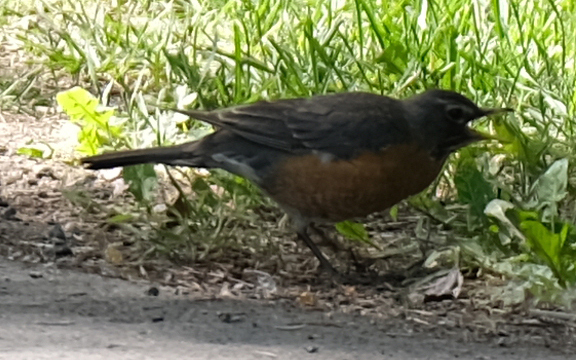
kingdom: Animalia
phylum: Chordata
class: Aves
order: Passeriformes
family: Turdidae
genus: Turdus
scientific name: Turdus migratorius
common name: American robin
